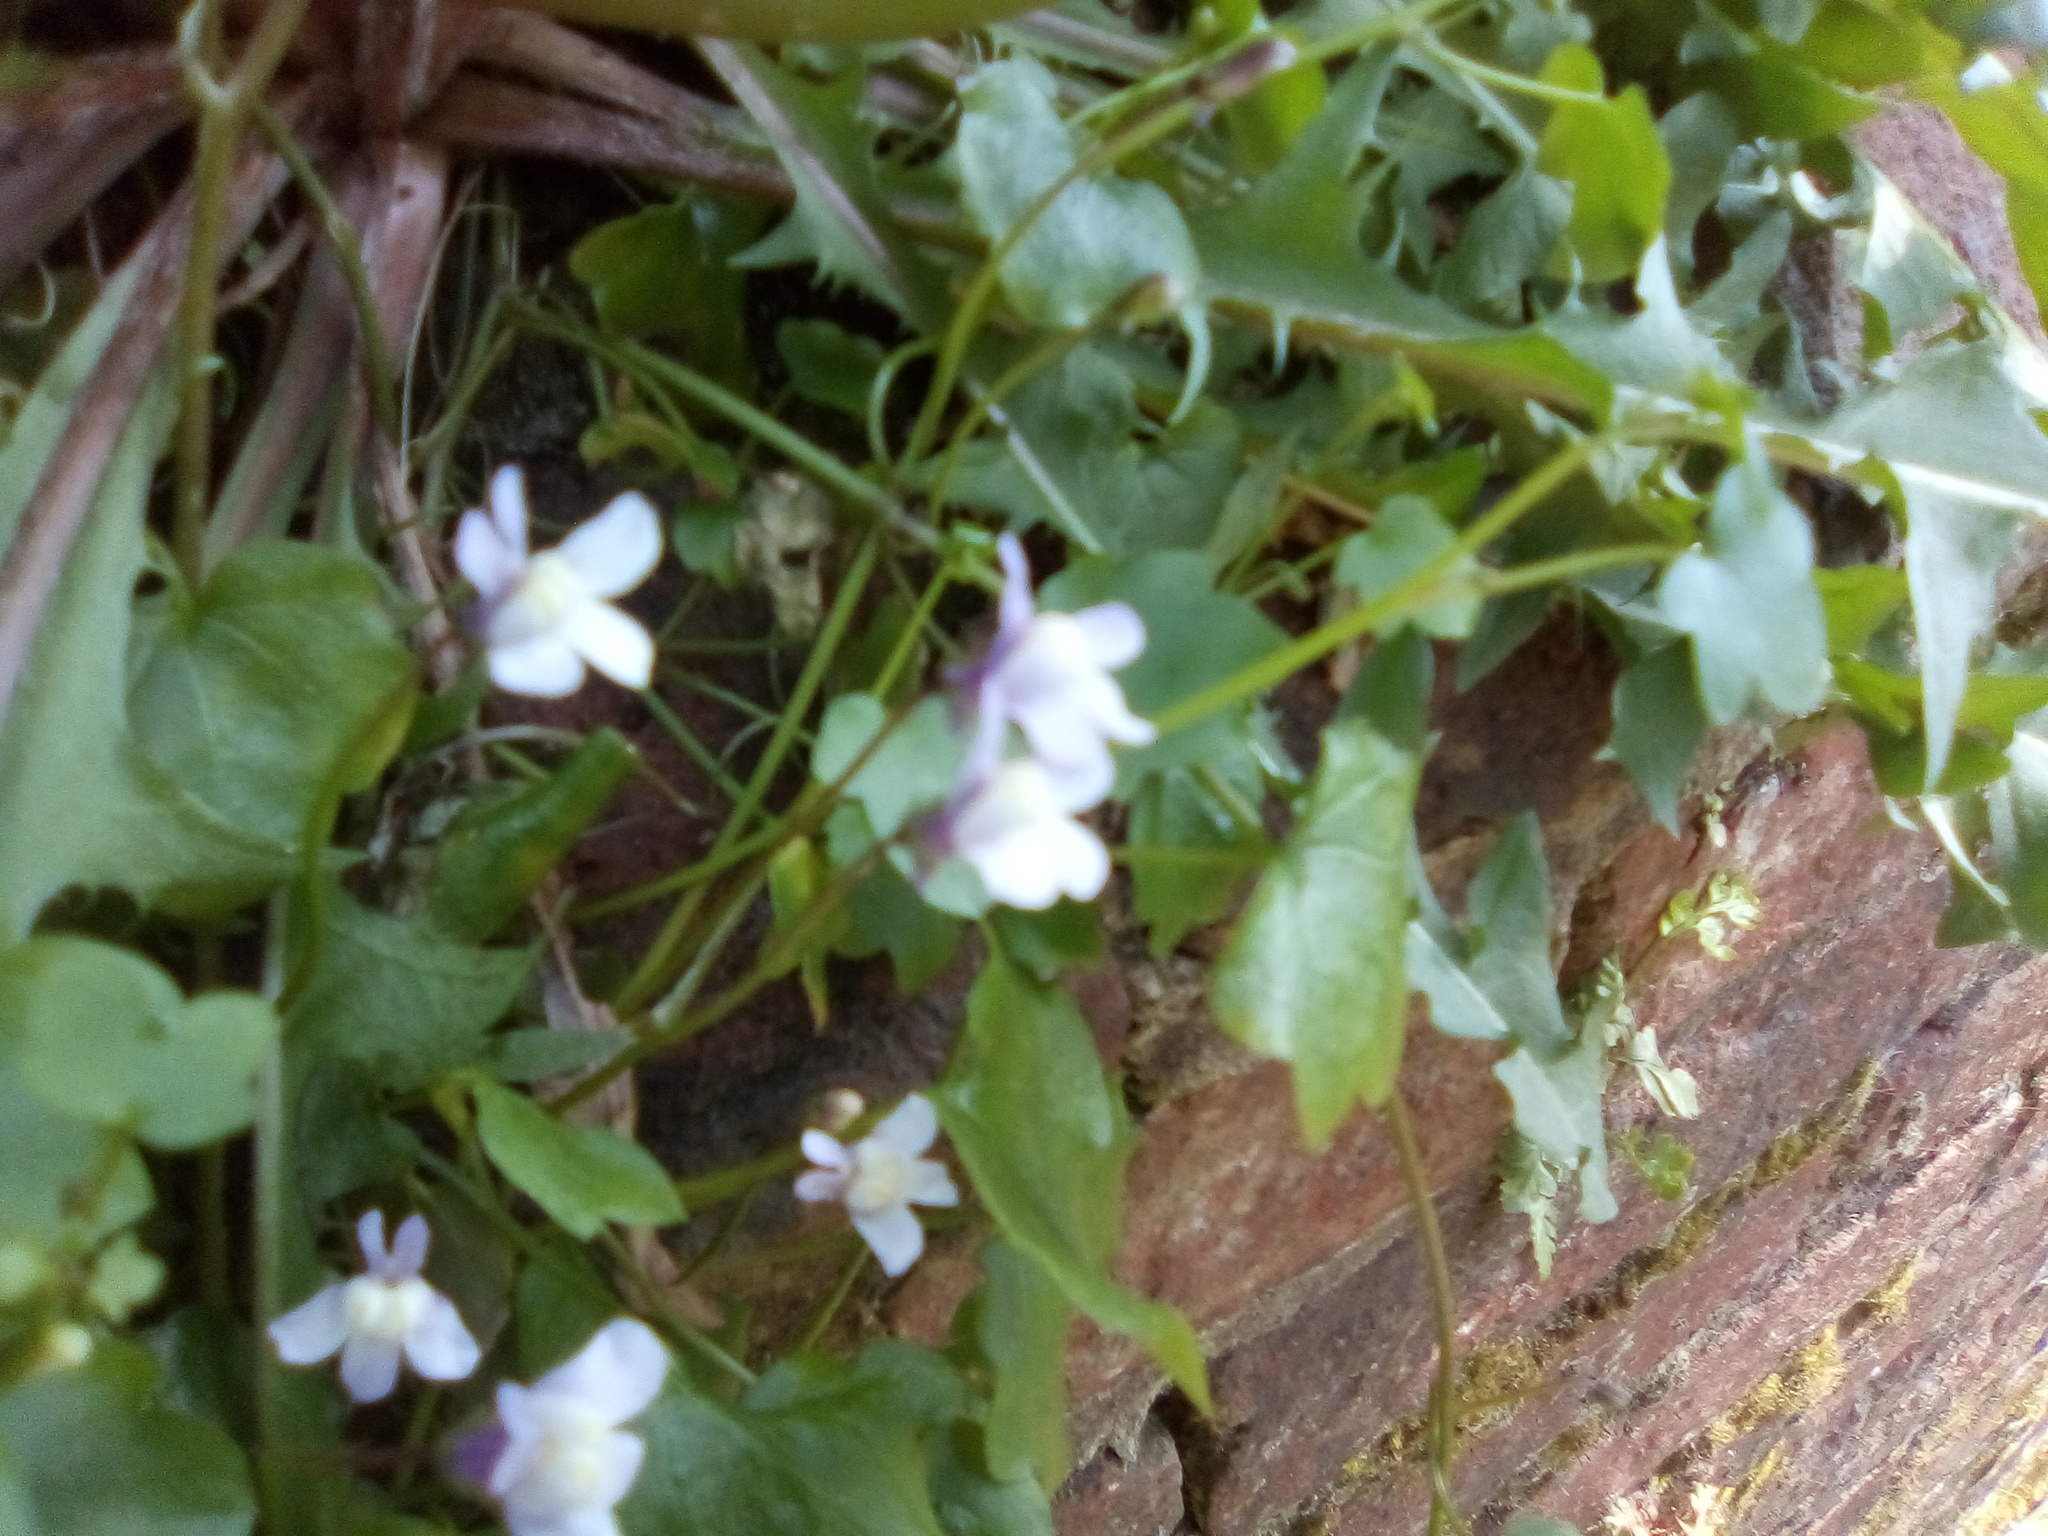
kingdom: Plantae
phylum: Tracheophyta
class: Magnoliopsida
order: Lamiales
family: Plantaginaceae
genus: Cymbalaria
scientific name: Cymbalaria muralis
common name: Ivy-leaved toadflax
